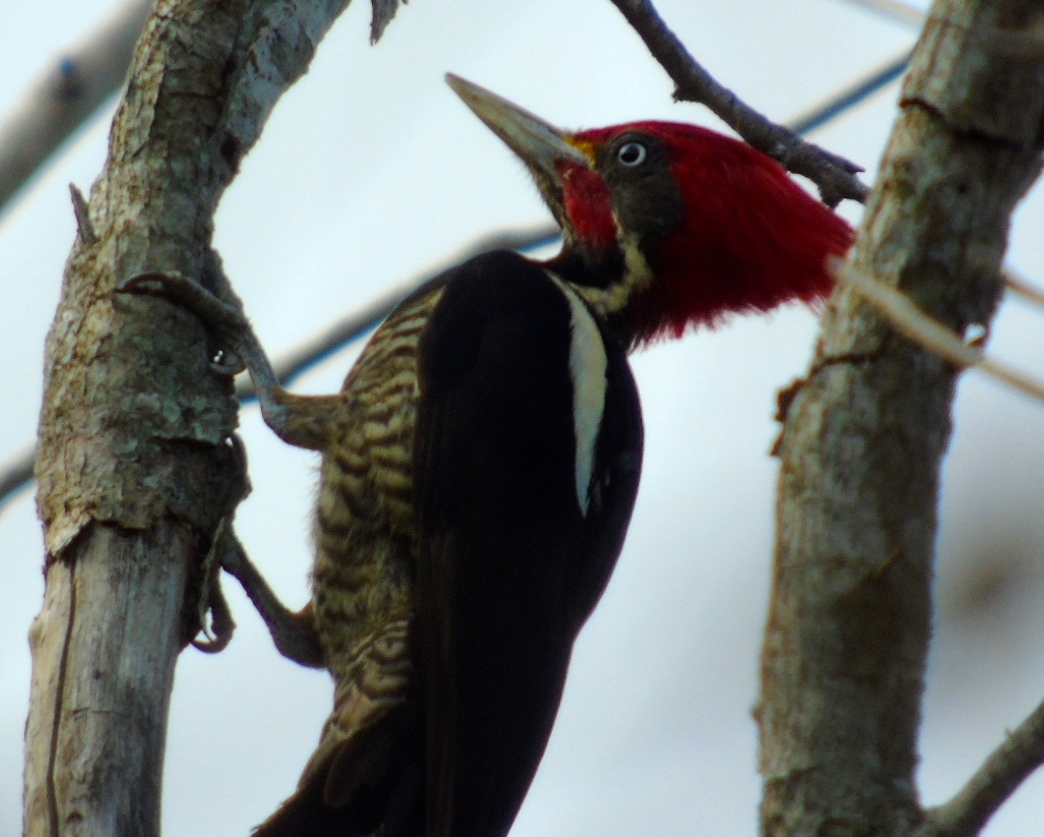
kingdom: Animalia
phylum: Chordata
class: Aves
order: Piciformes
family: Picidae
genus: Dryocopus
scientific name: Dryocopus lineatus
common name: Lineated woodpecker
